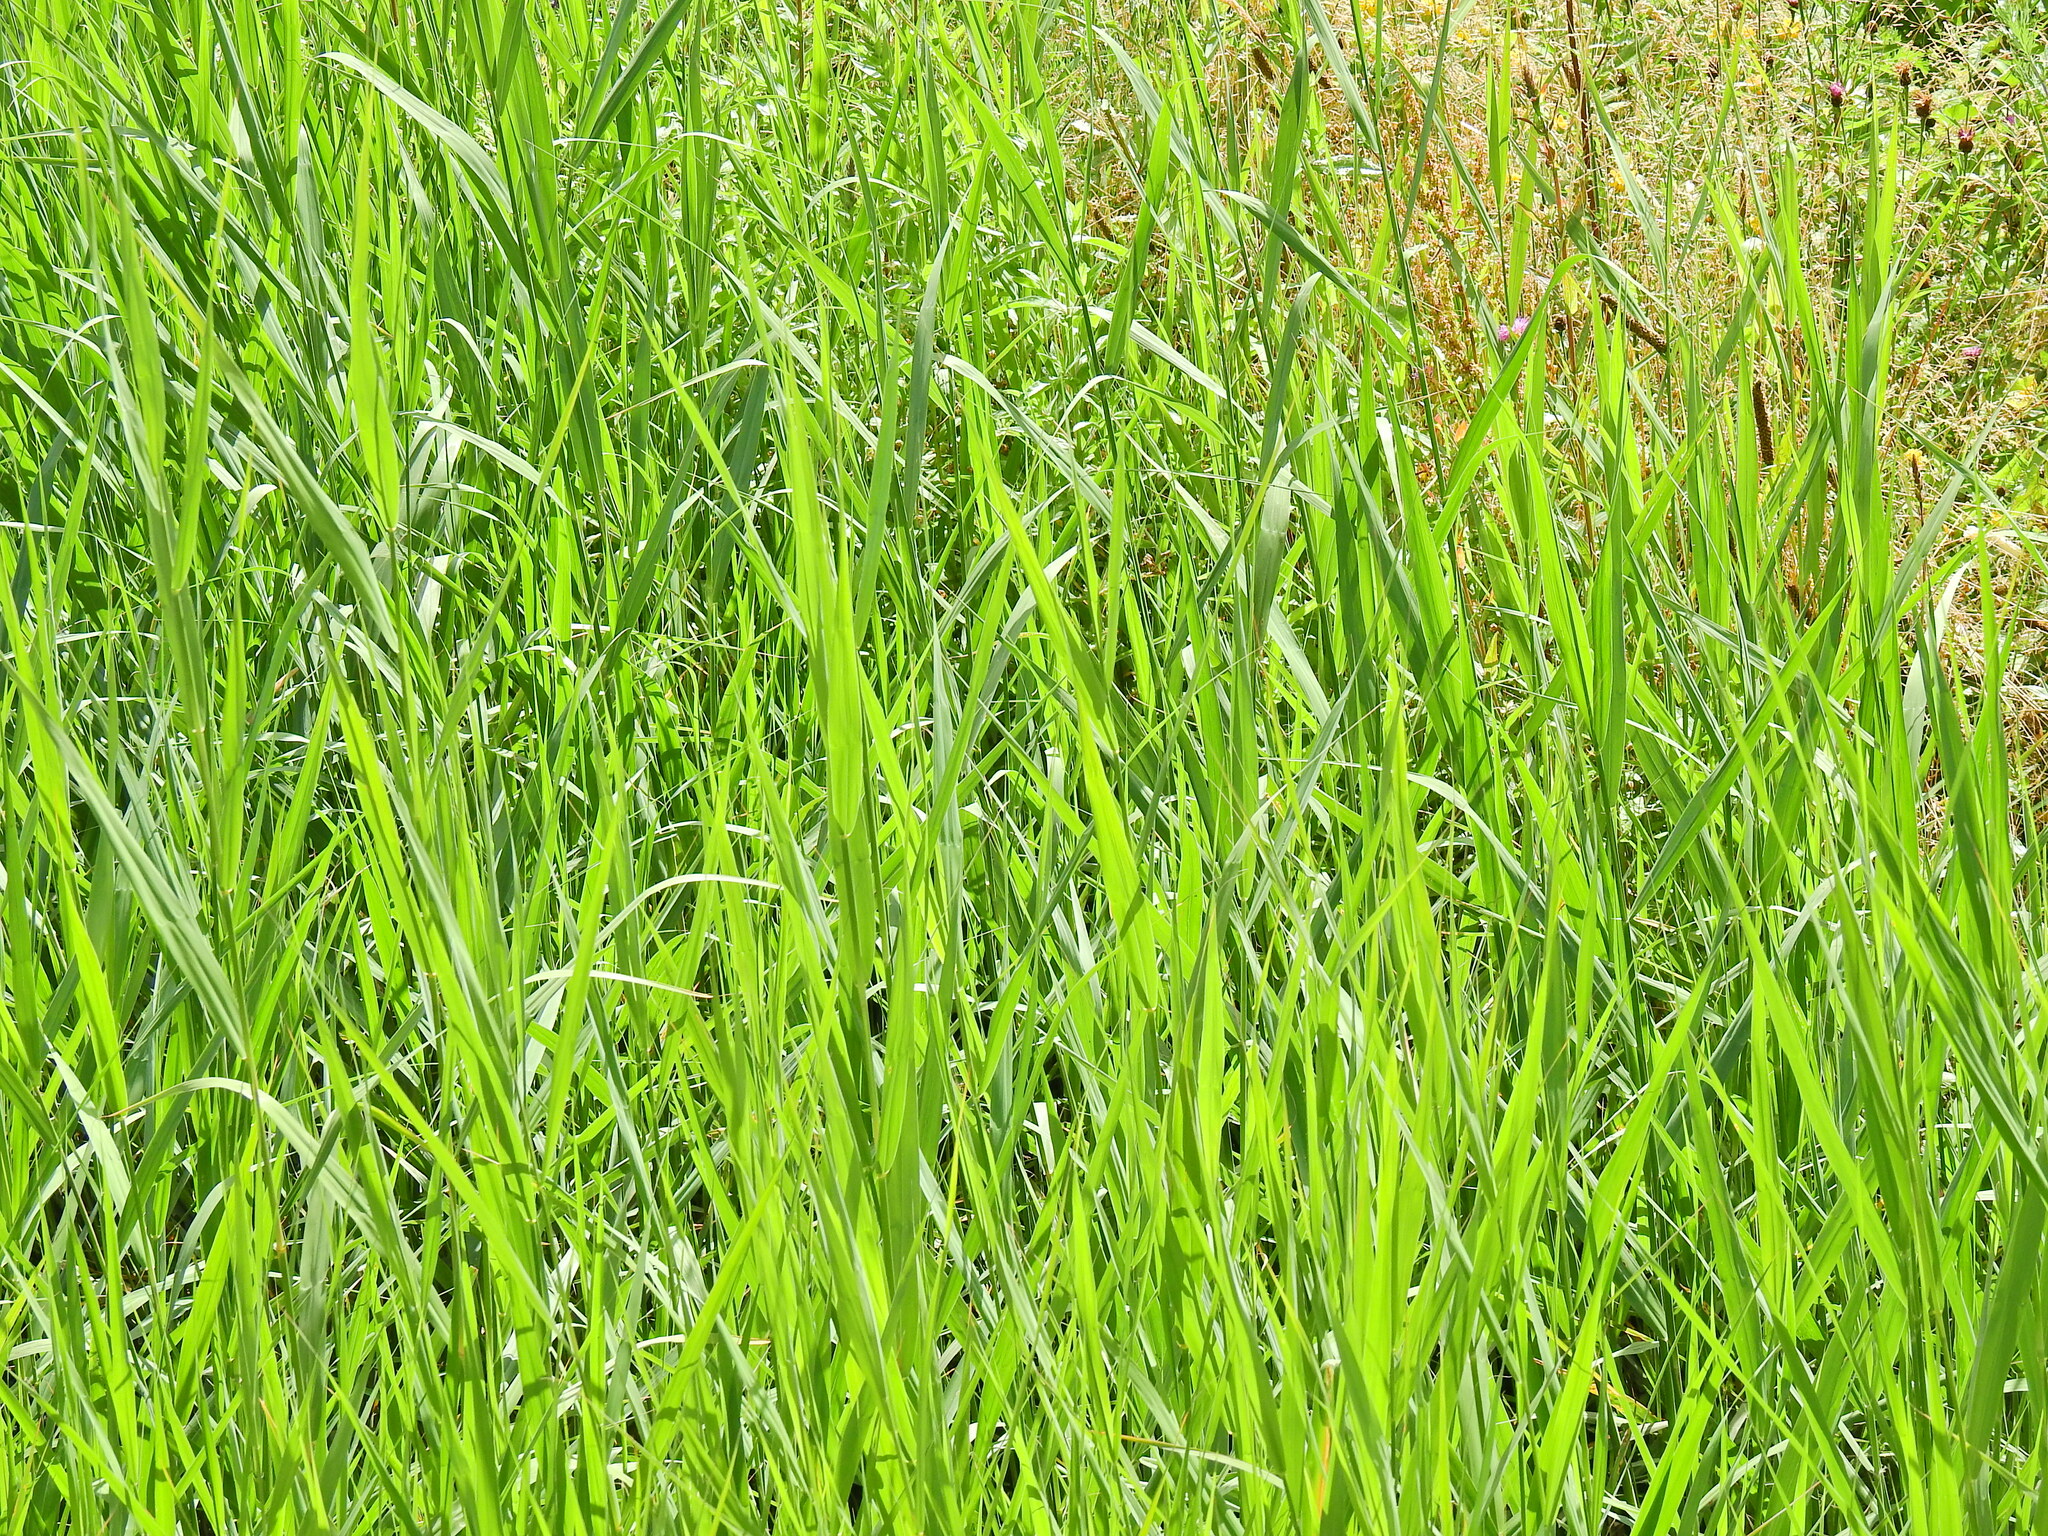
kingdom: Plantae
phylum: Tracheophyta
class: Liliopsida
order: Poales
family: Poaceae
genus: Phragmites
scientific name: Phragmites australis
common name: Common reed
